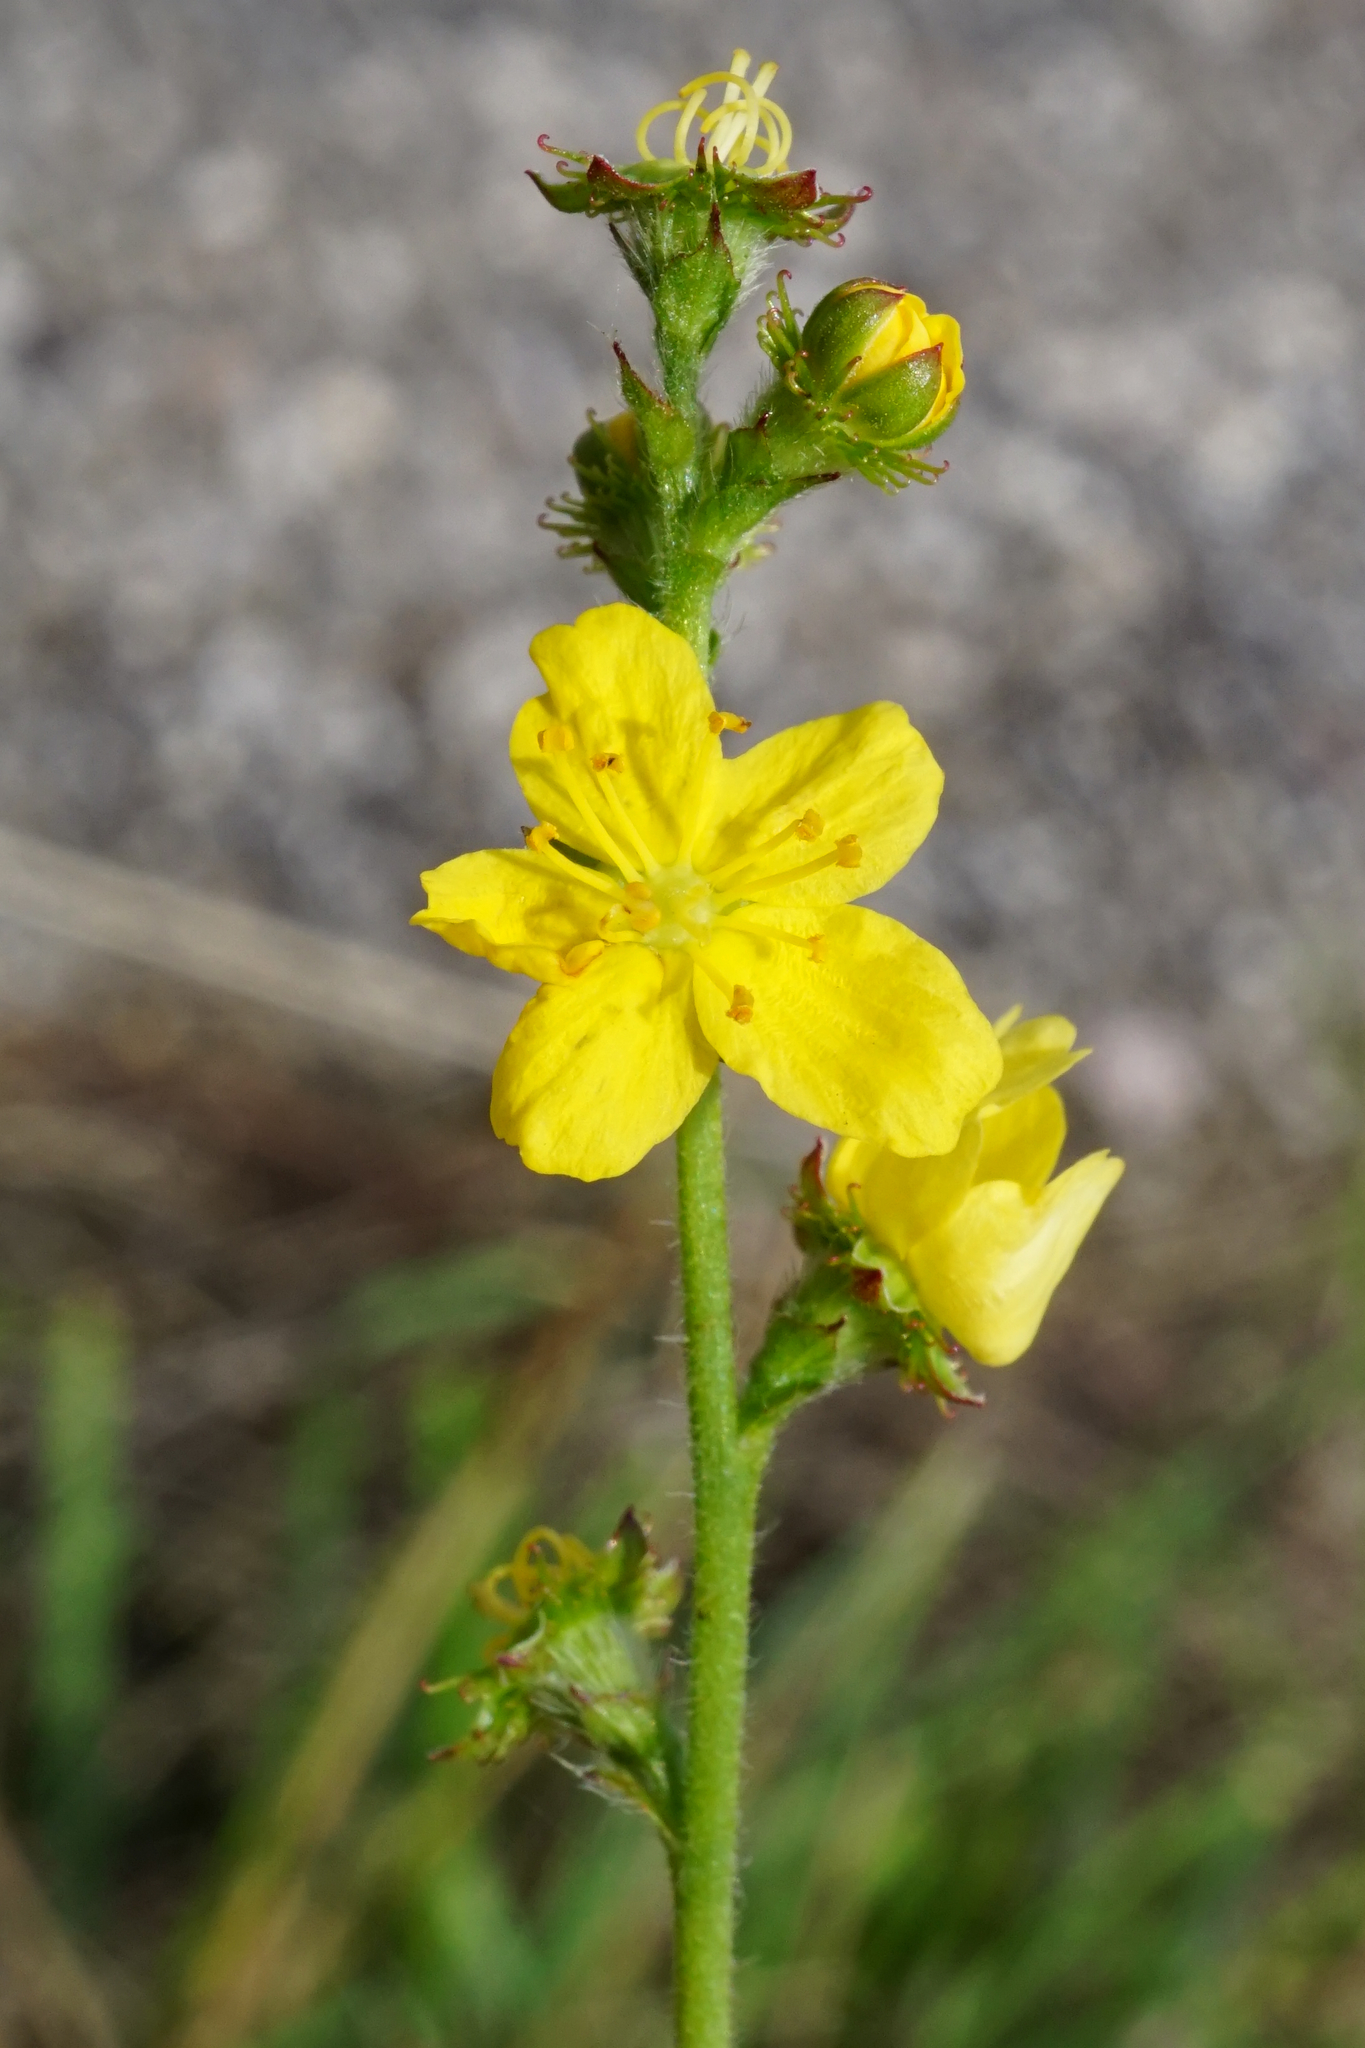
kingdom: Plantae
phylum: Tracheophyta
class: Magnoliopsida
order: Rosales
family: Rosaceae
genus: Agrimonia
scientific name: Agrimonia eupatoria
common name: Agrimony
